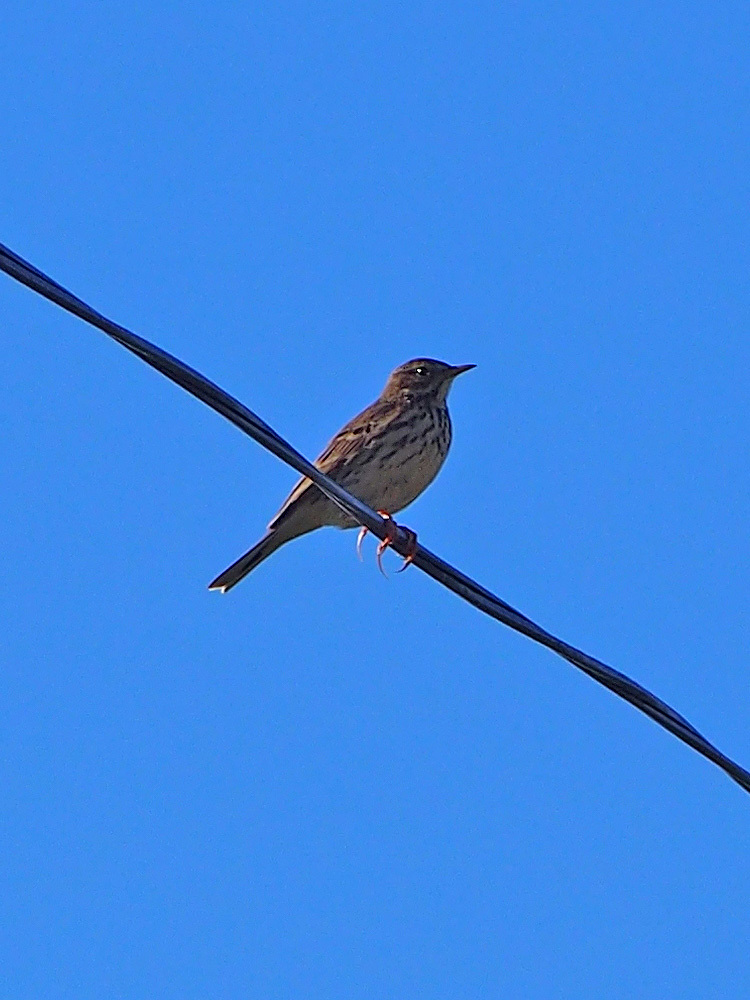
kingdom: Animalia
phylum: Chordata
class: Aves
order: Passeriformes
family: Motacillidae
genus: Anthus
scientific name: Anthus pratensis
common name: Meadow pipit
